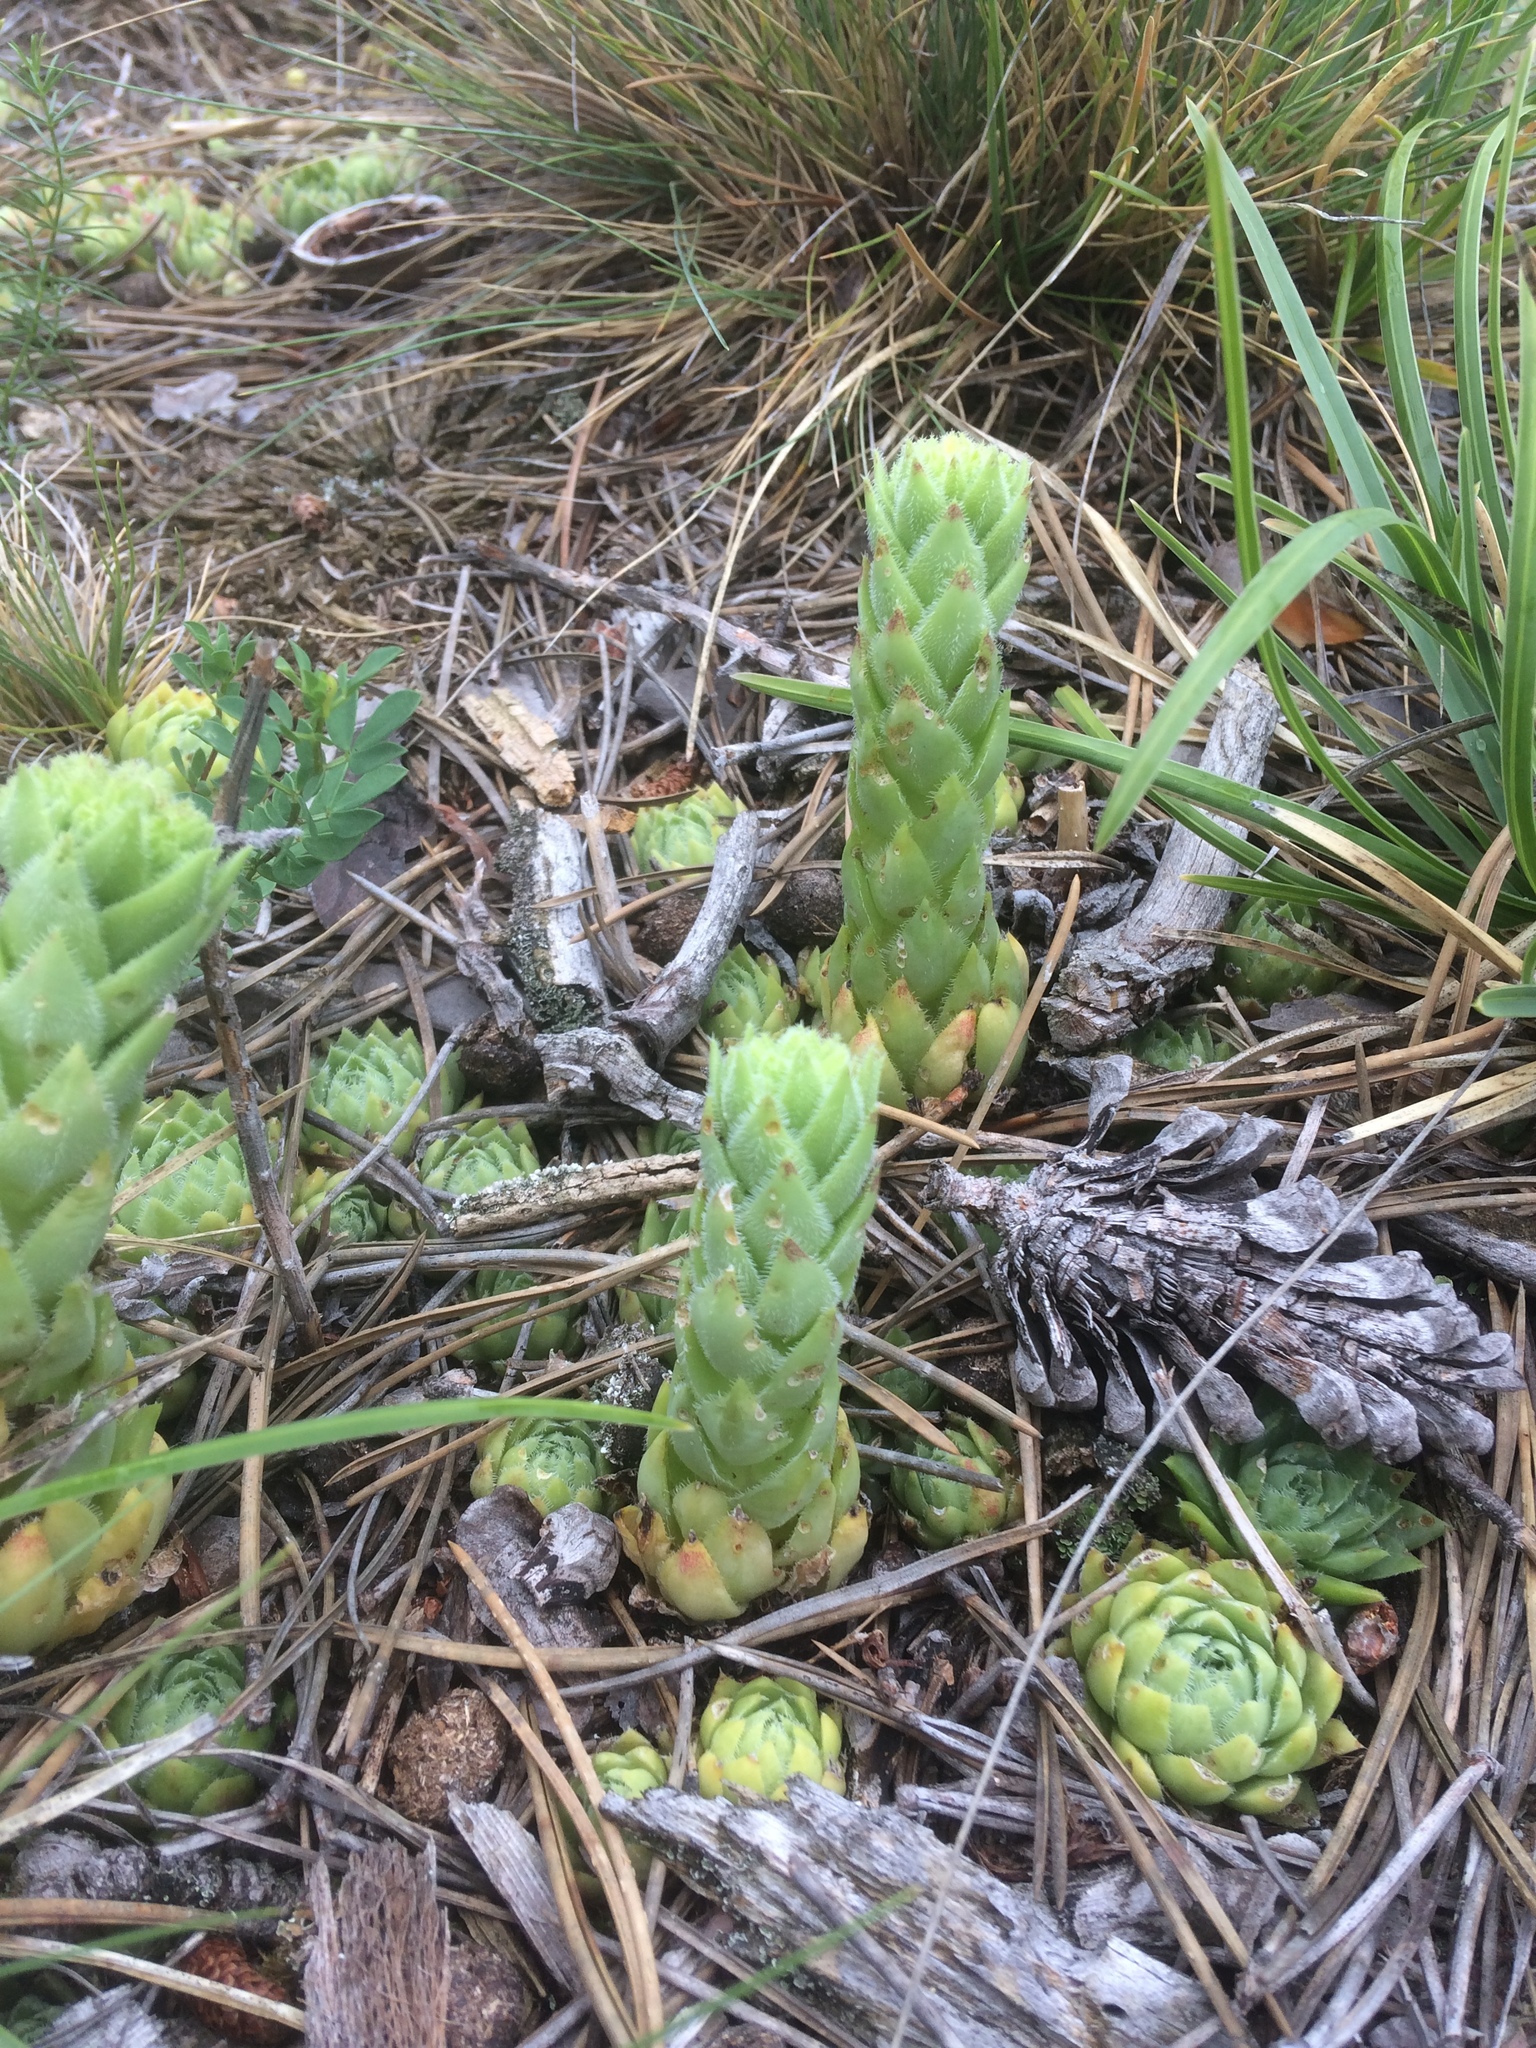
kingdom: Plantae
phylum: Tracheophyta
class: Magnoliopsida
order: Saxifragales
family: Crassulaceae
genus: Sempervivum
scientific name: Sempervivum globiferum
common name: Rolling hen-and-chicks
